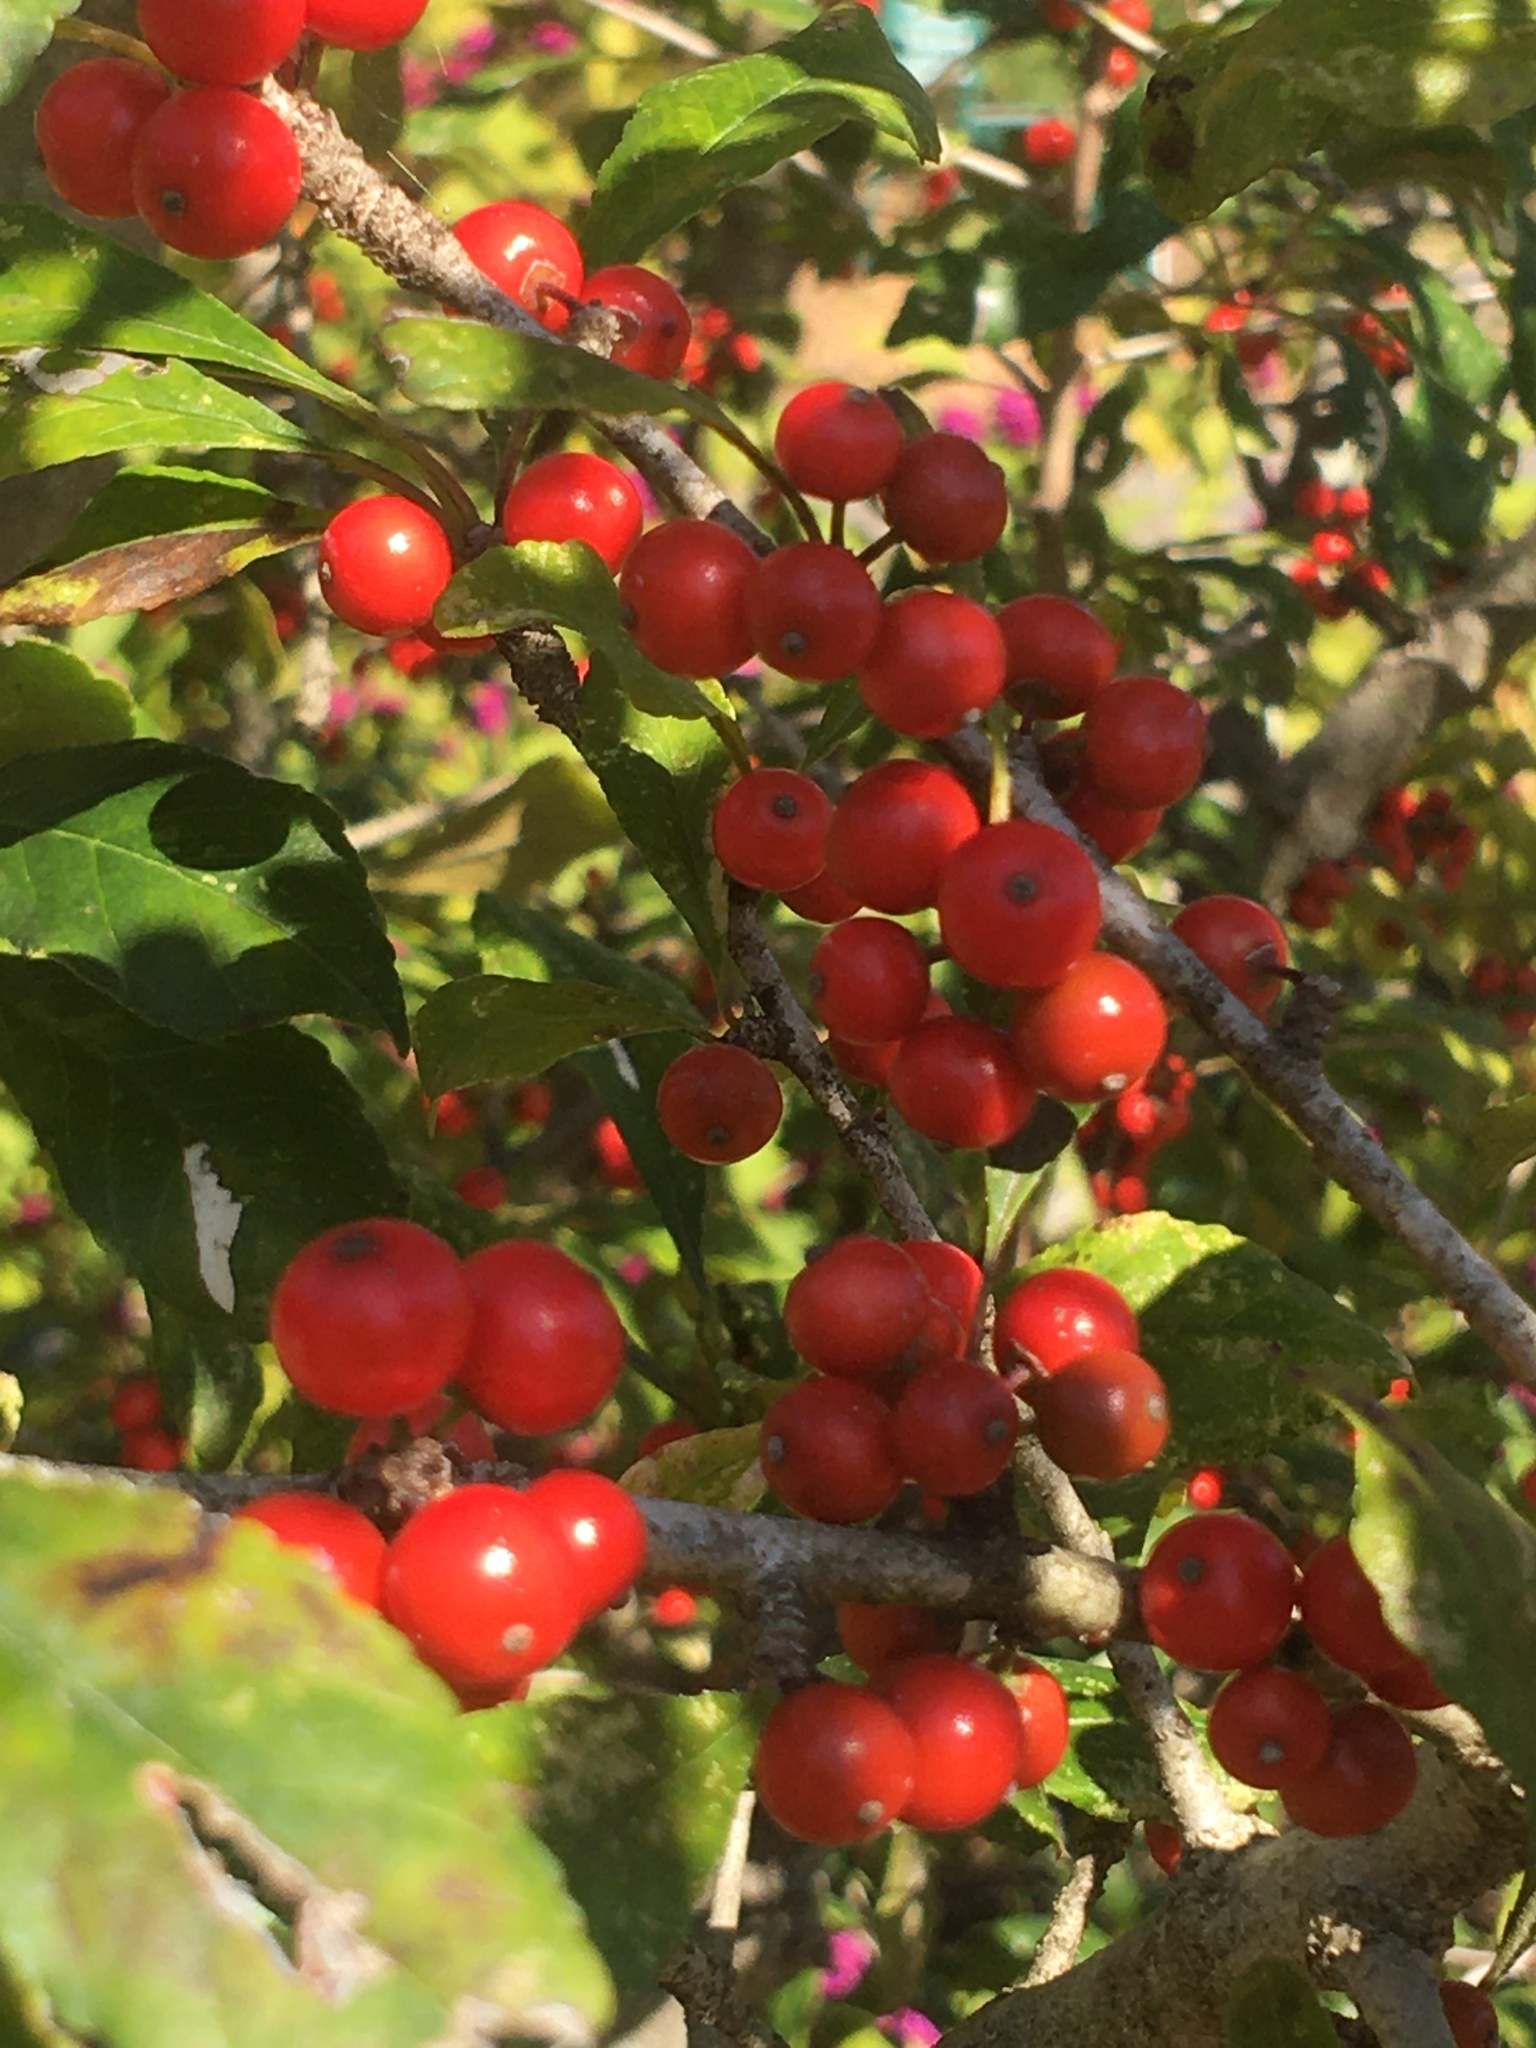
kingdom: Plantae
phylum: Tracheophyta
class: Magnoliopsida
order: Aquifoliales
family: Aquifoliaceae
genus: Ilex
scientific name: Ilex decidua
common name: Possum-haw
